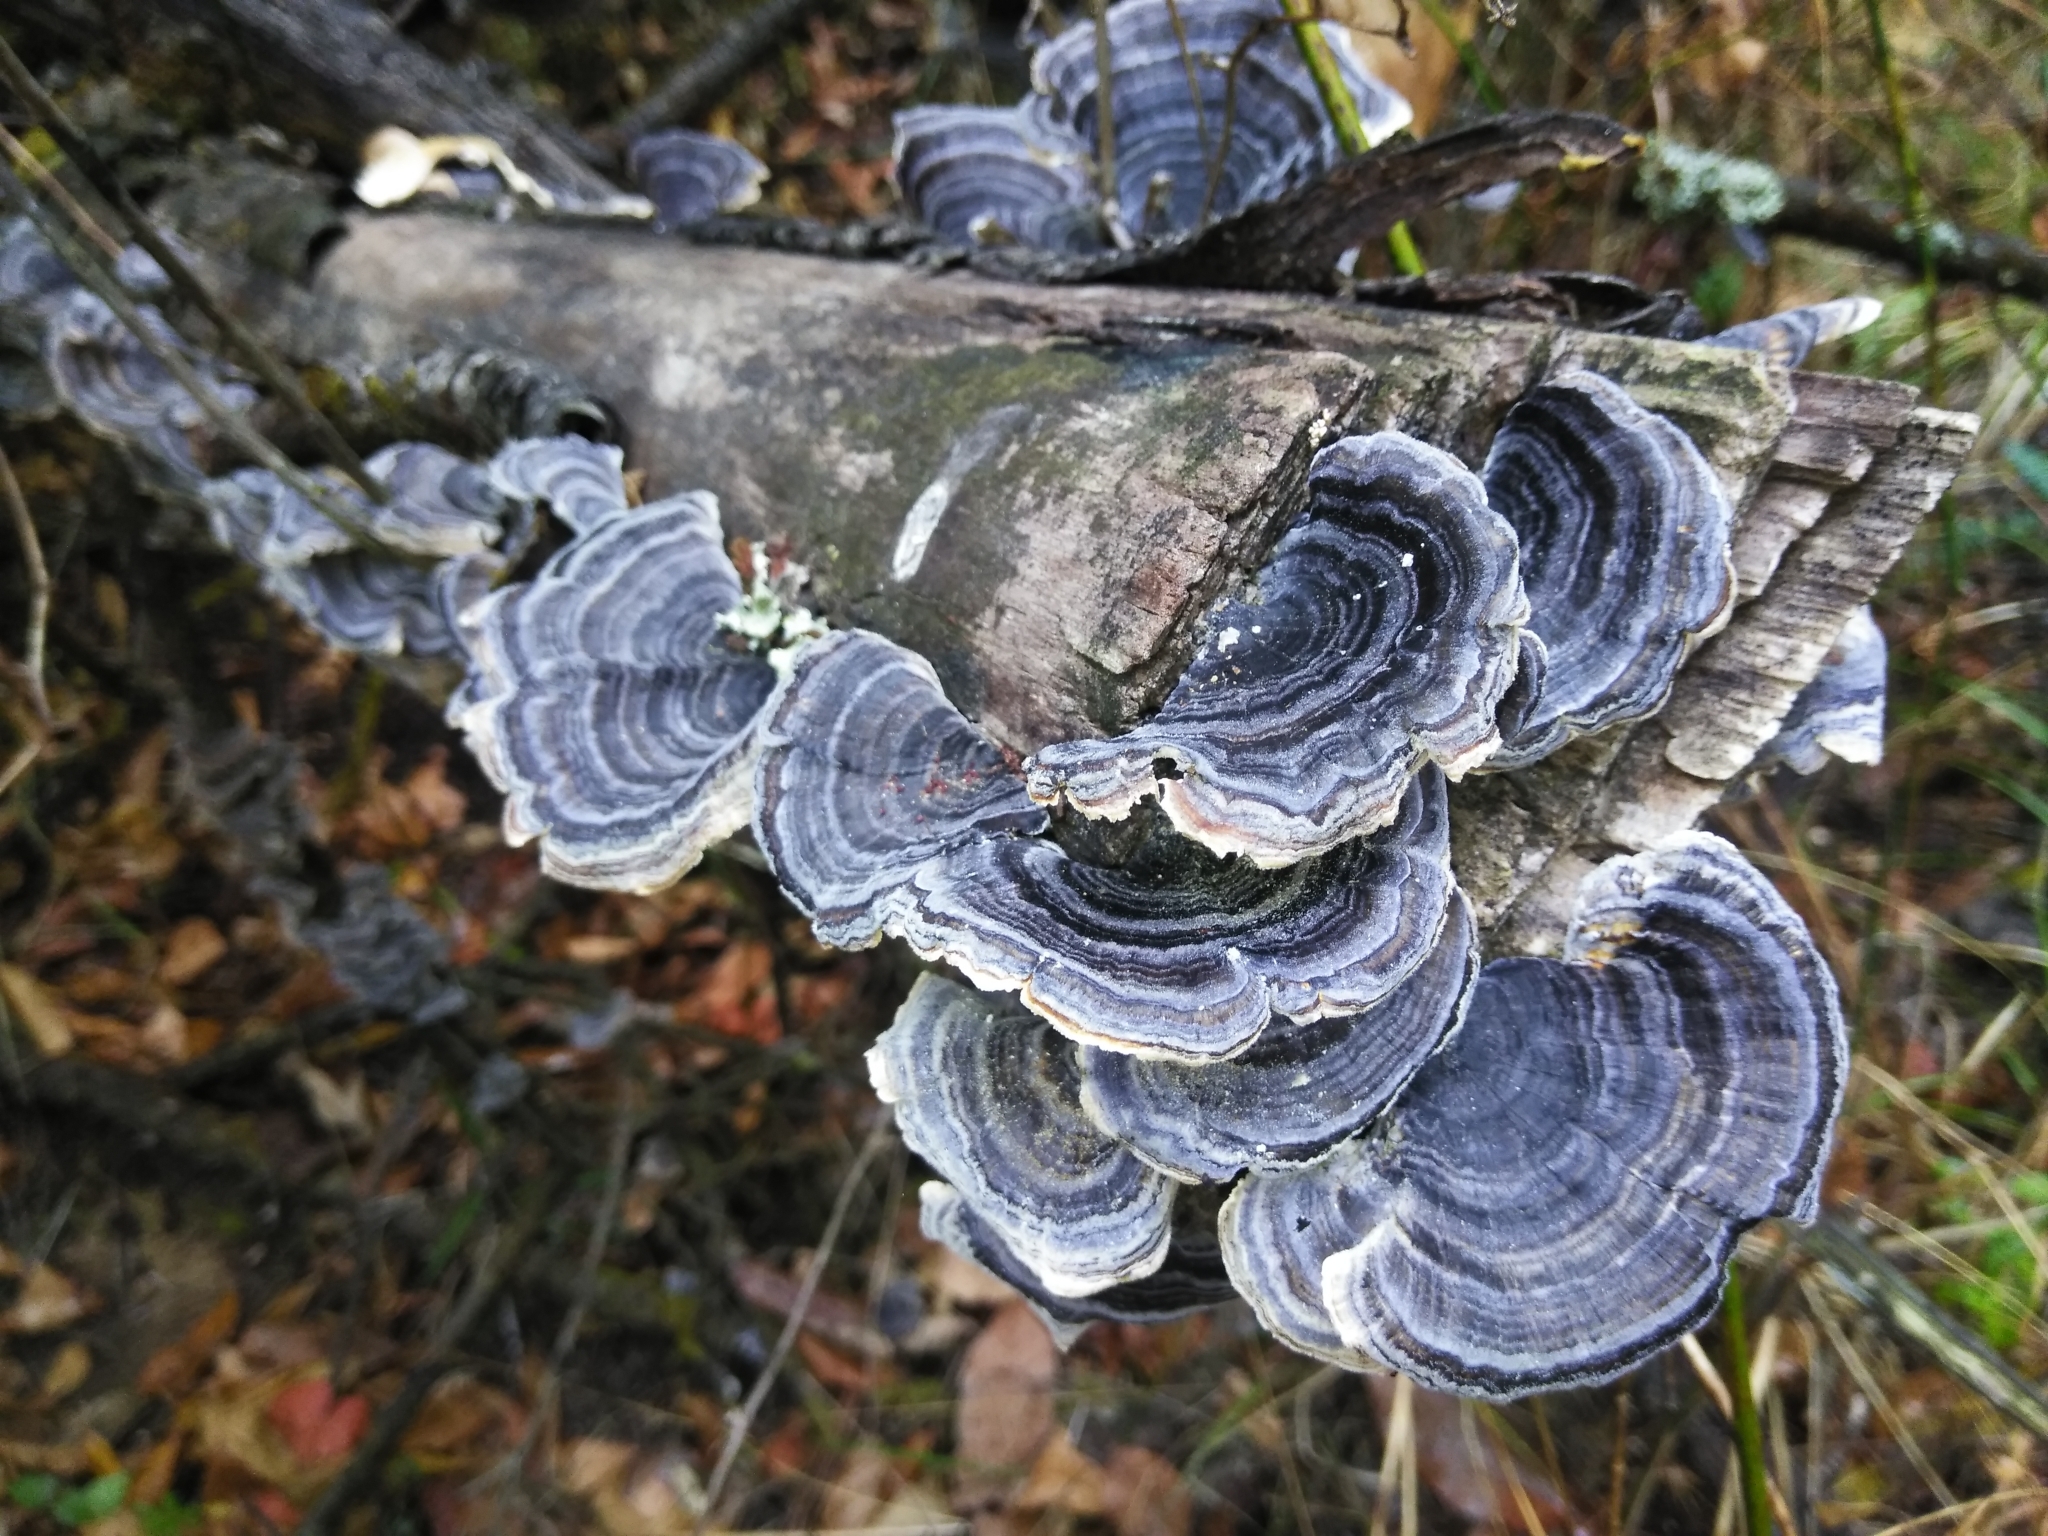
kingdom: Fungi
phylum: Basidiomycota
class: Agaricomycetes
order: Polyporales
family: Polyporaceae
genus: Trametes
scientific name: Trametes versicolor
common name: Turkeytail
